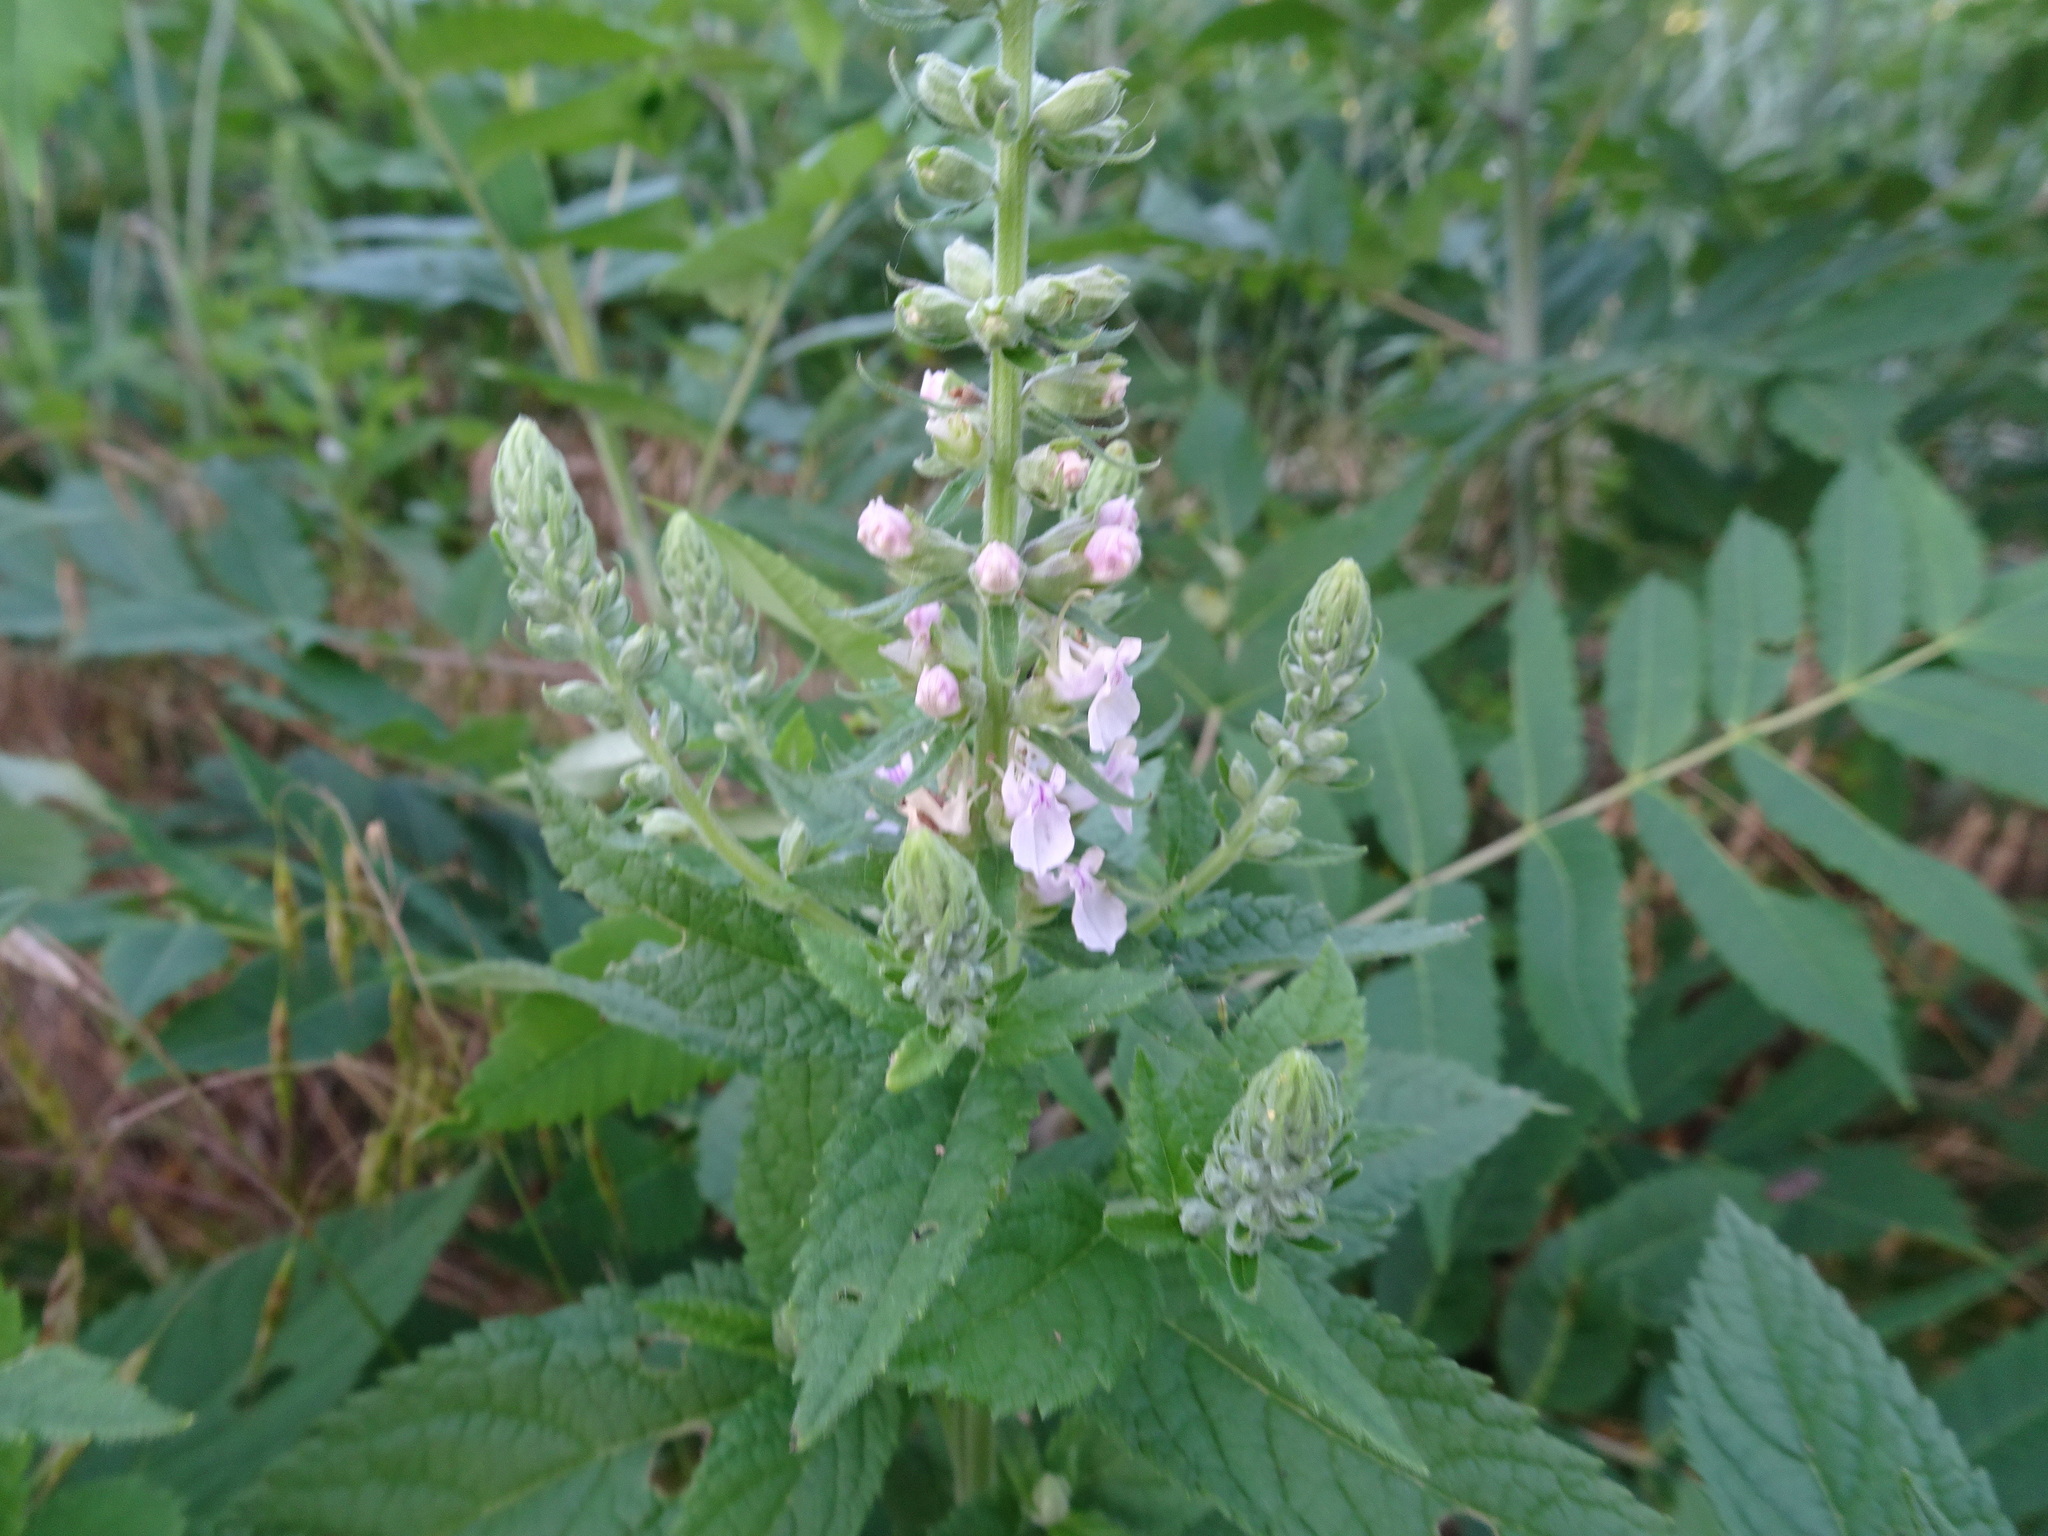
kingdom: Plantae
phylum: Tracheophyta
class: Magnoliopsida
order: Lamiales
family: Lamiaceae
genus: Teucrium
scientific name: Teucrium canadense
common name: American germander
